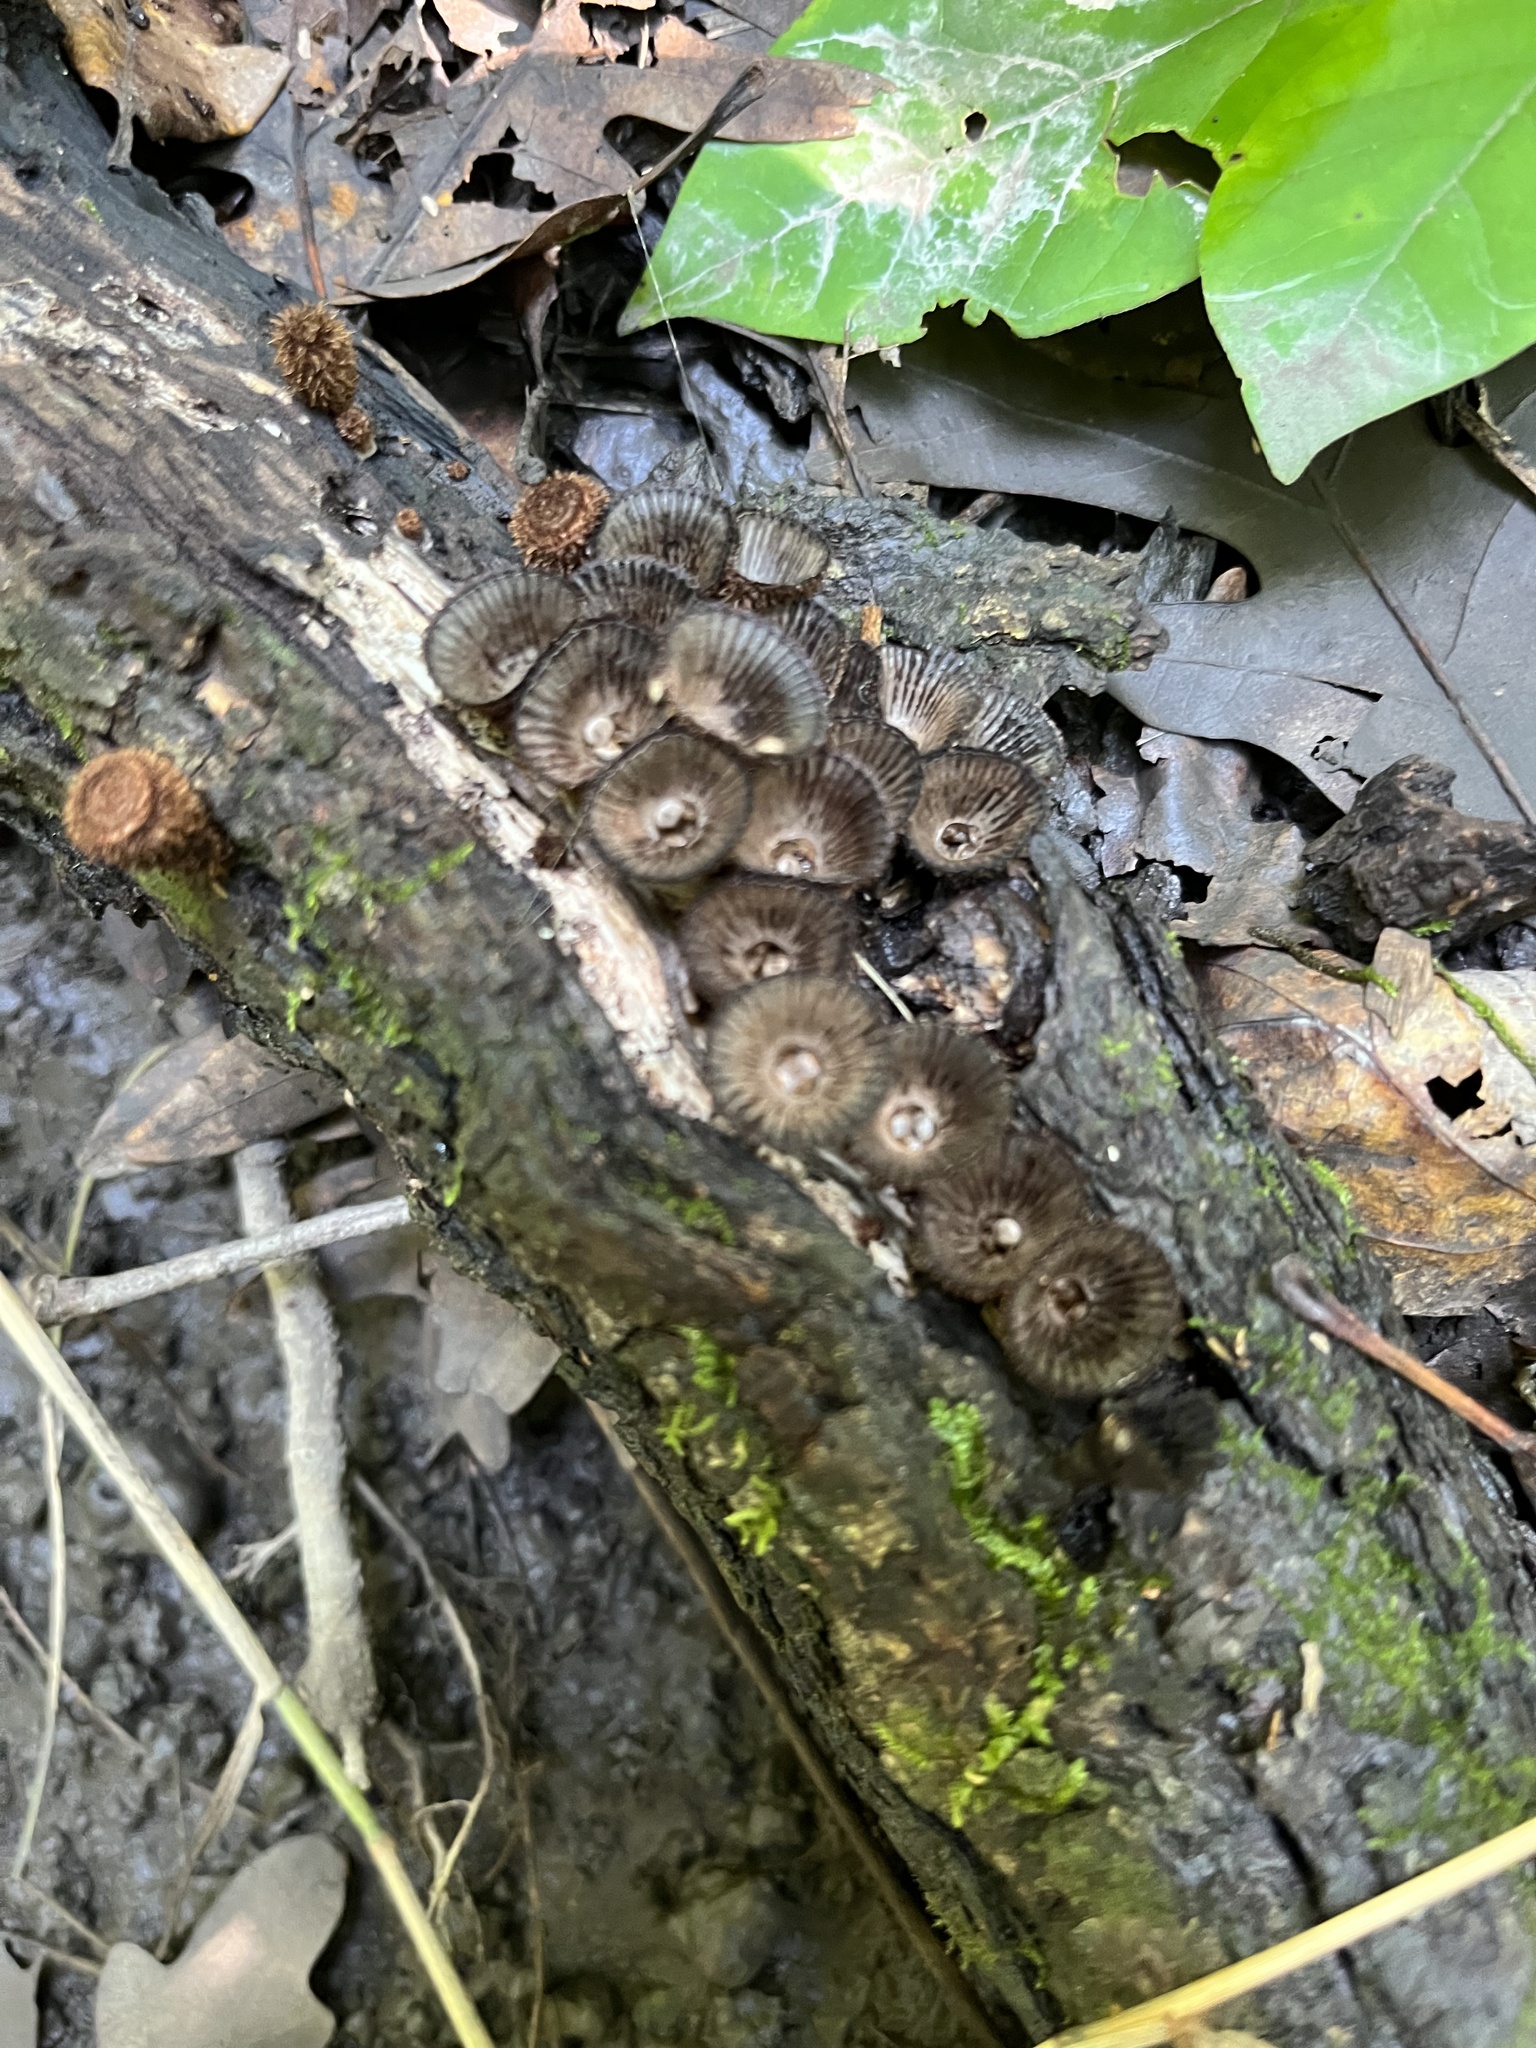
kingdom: Fungi
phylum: Basidiomycota
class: Agaricomycetes
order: Agaricales
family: Agaricaceae
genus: Cyathus
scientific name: Cyathus striatus
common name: Fluted bird's nest
